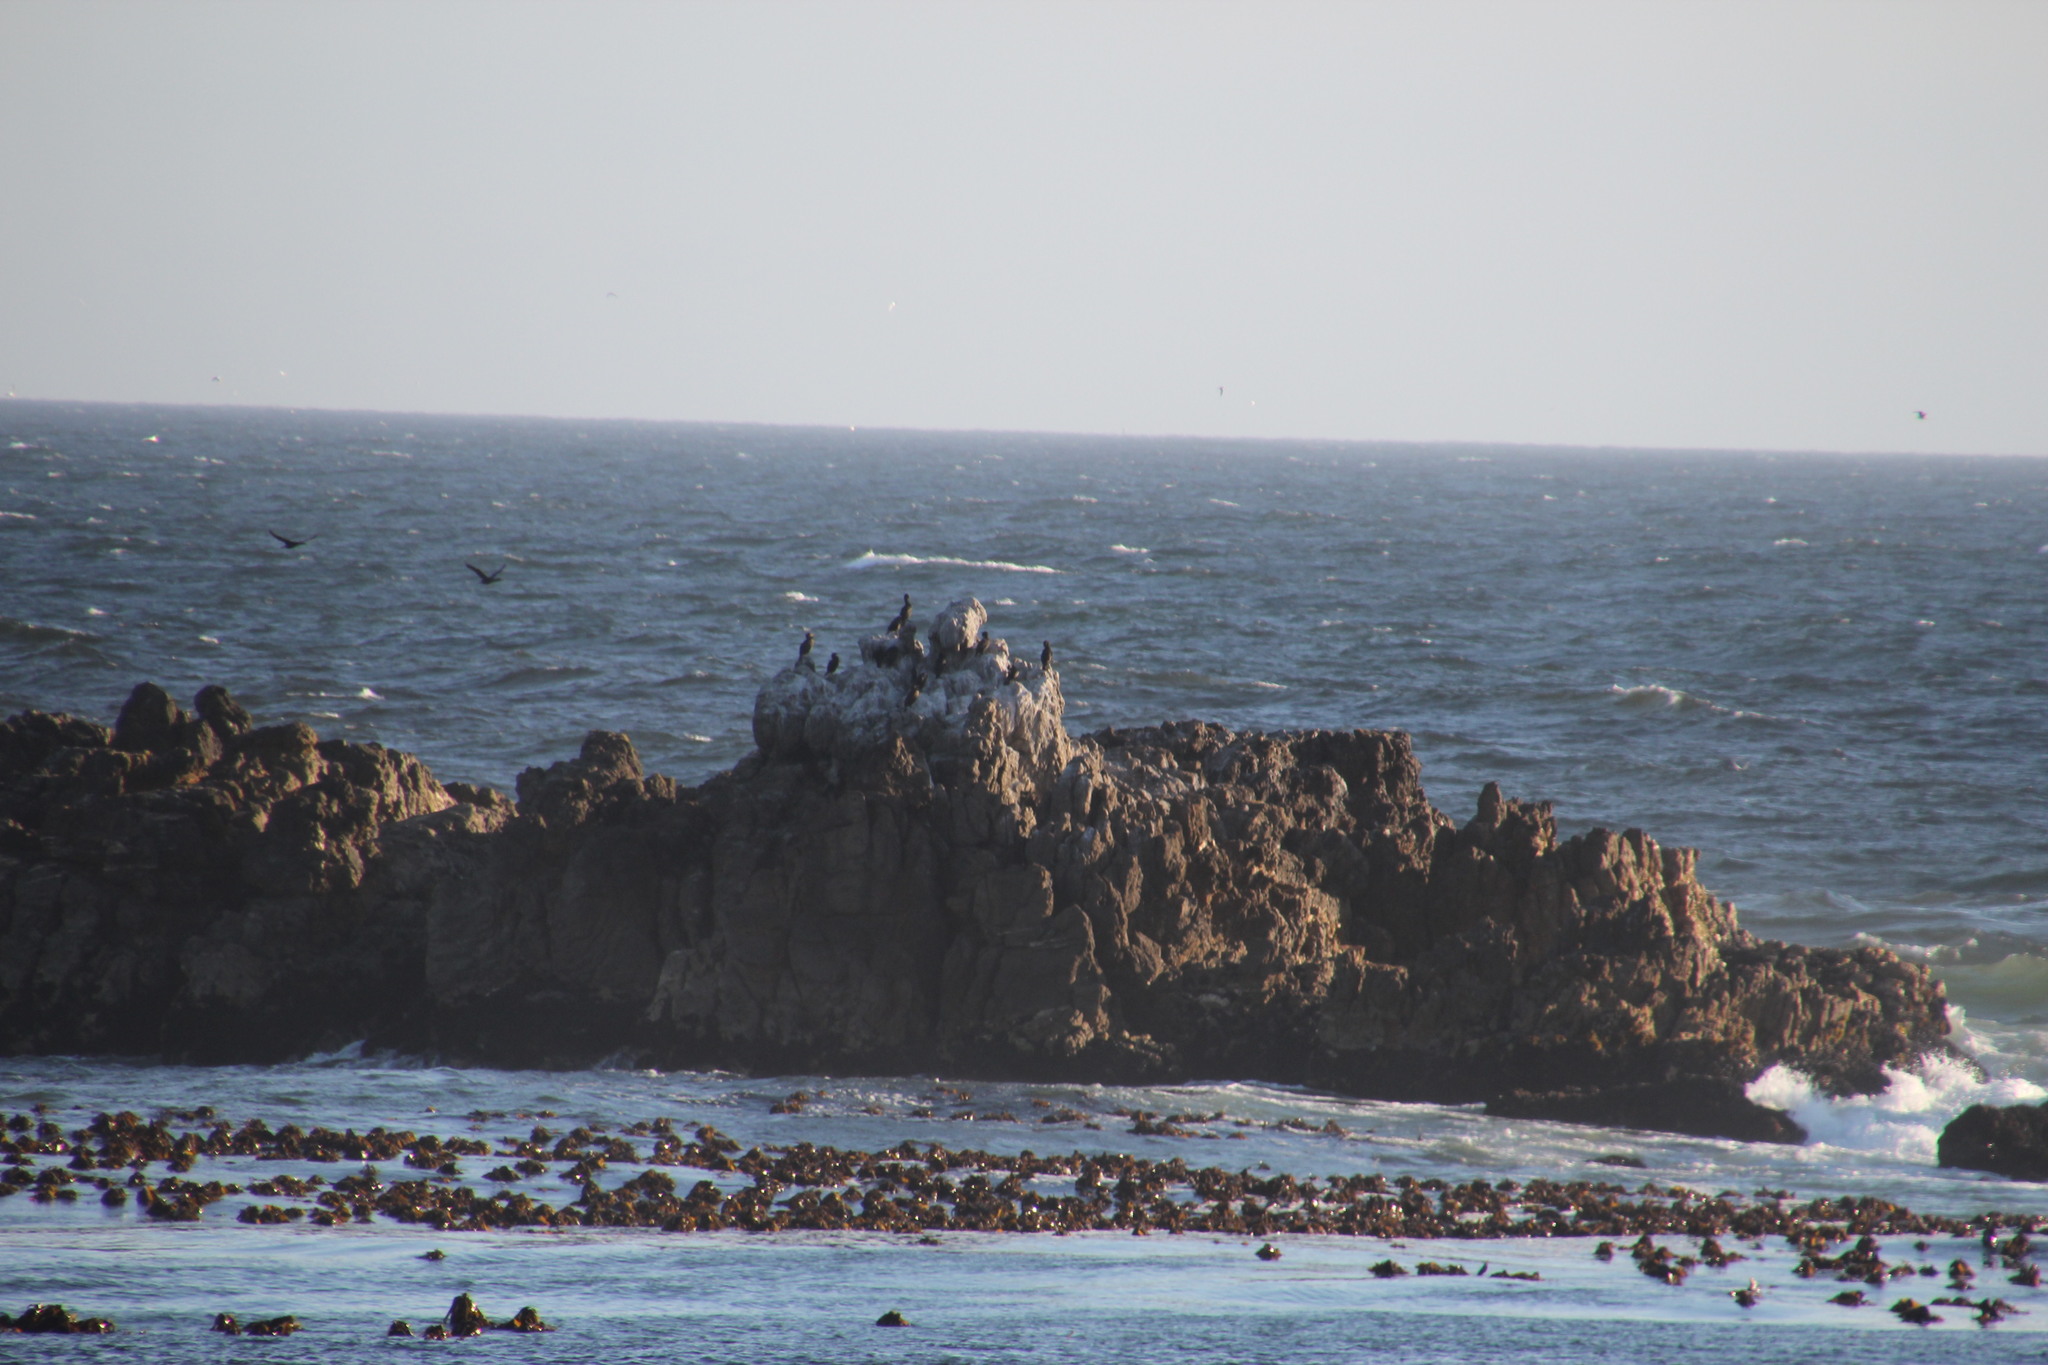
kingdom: Chromista
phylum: Ochrophyta
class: Phaeophyceae
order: Laminariales
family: Lessoniaceae
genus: Ecklonia
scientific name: Ecklonia
